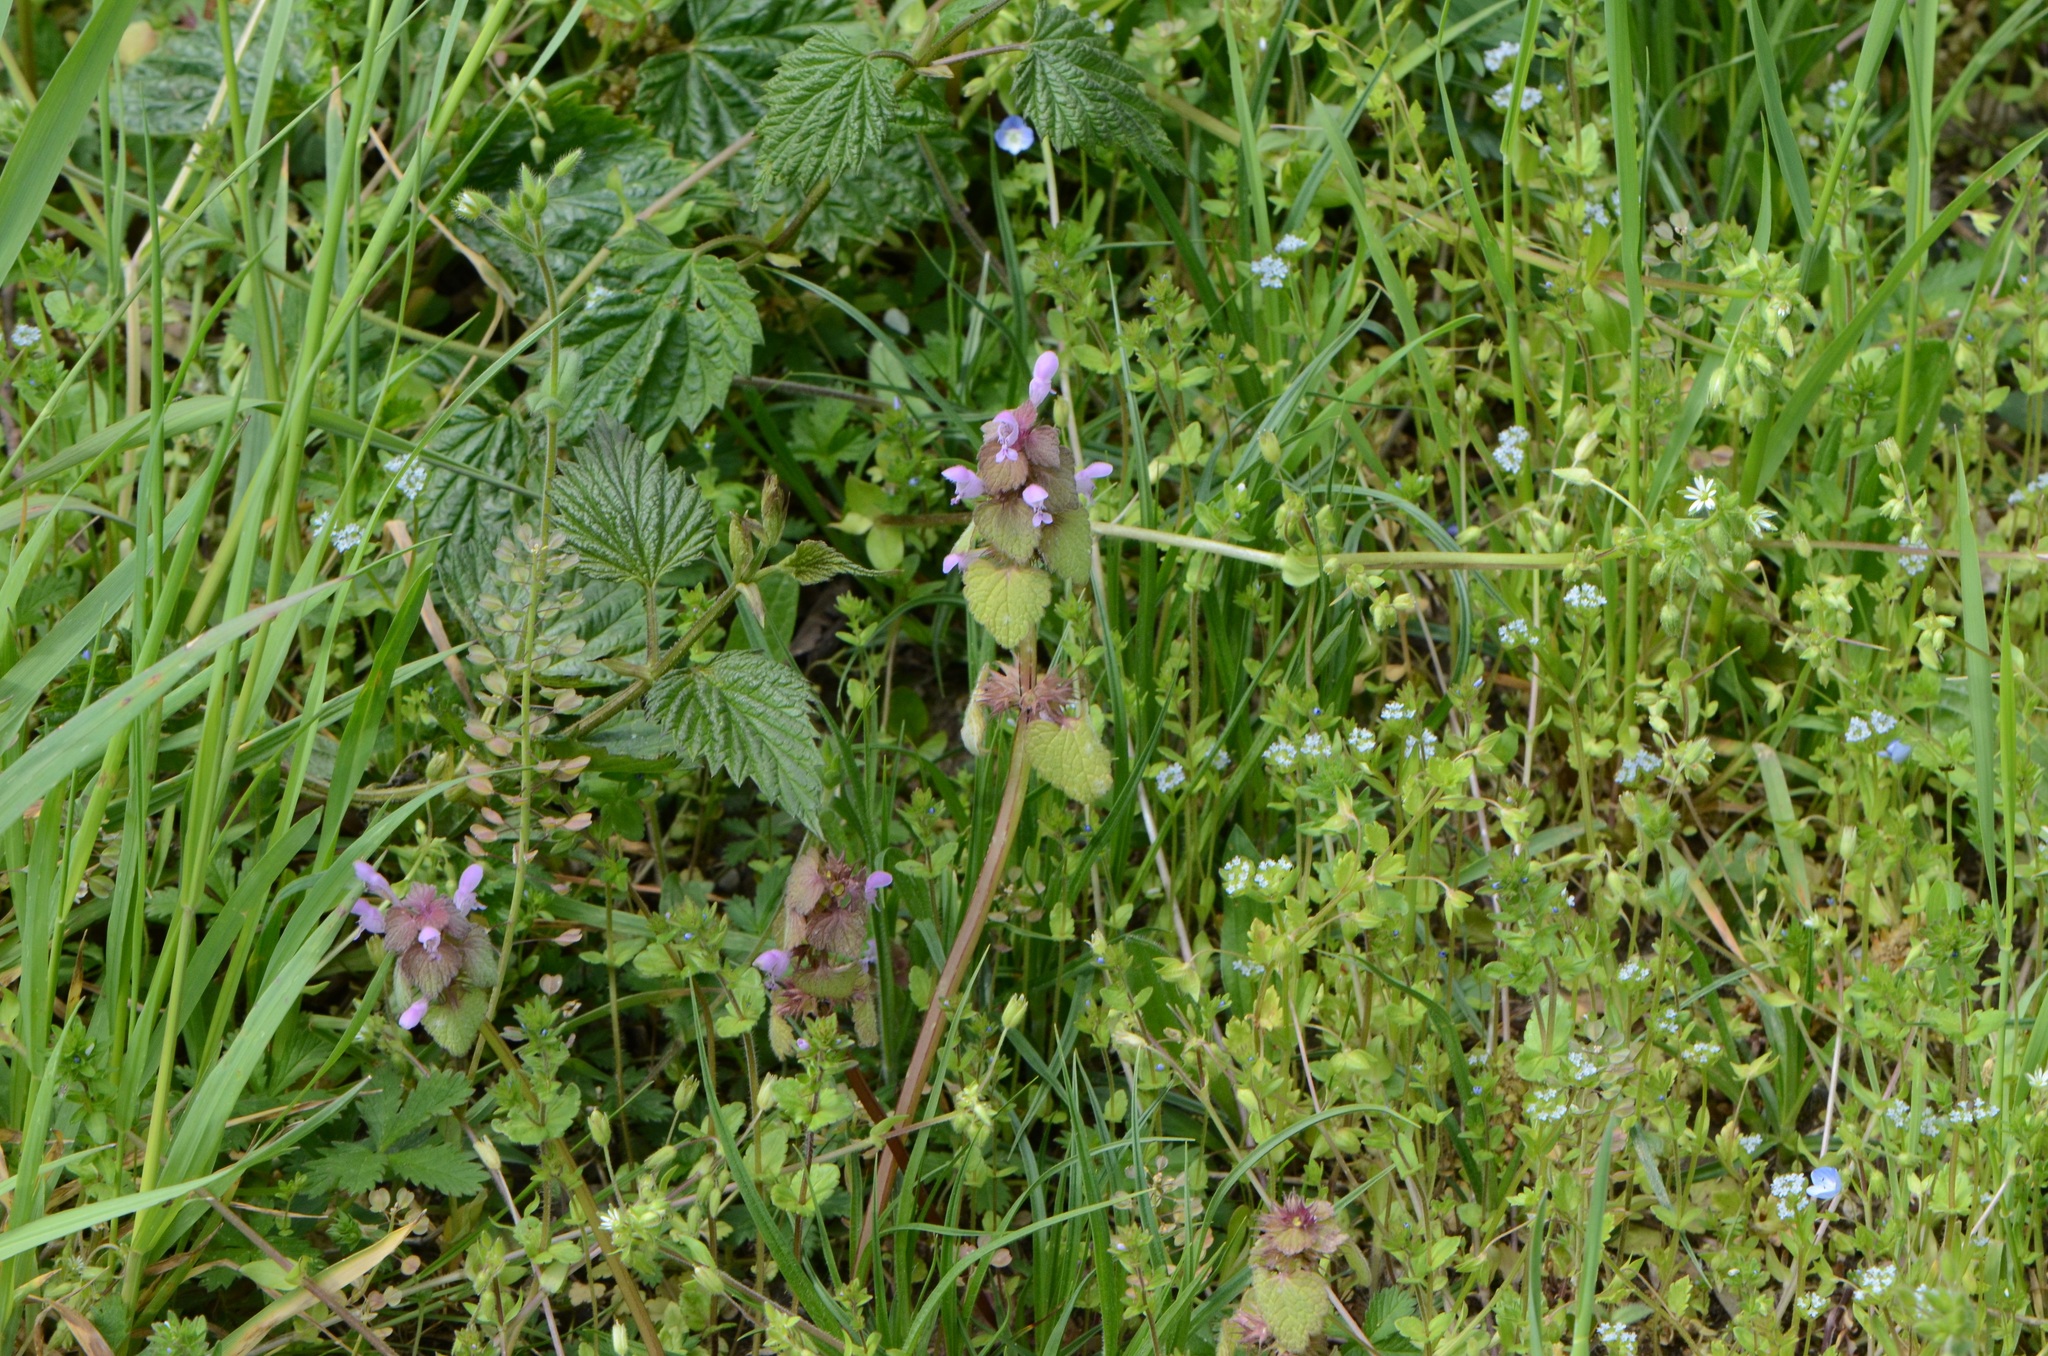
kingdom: Plantae
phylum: Tracheophyta
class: Magnoliopsida
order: Lamiales
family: Lamiaceae
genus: Lamium
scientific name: Lamium purpureum
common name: Red dead-nettle
